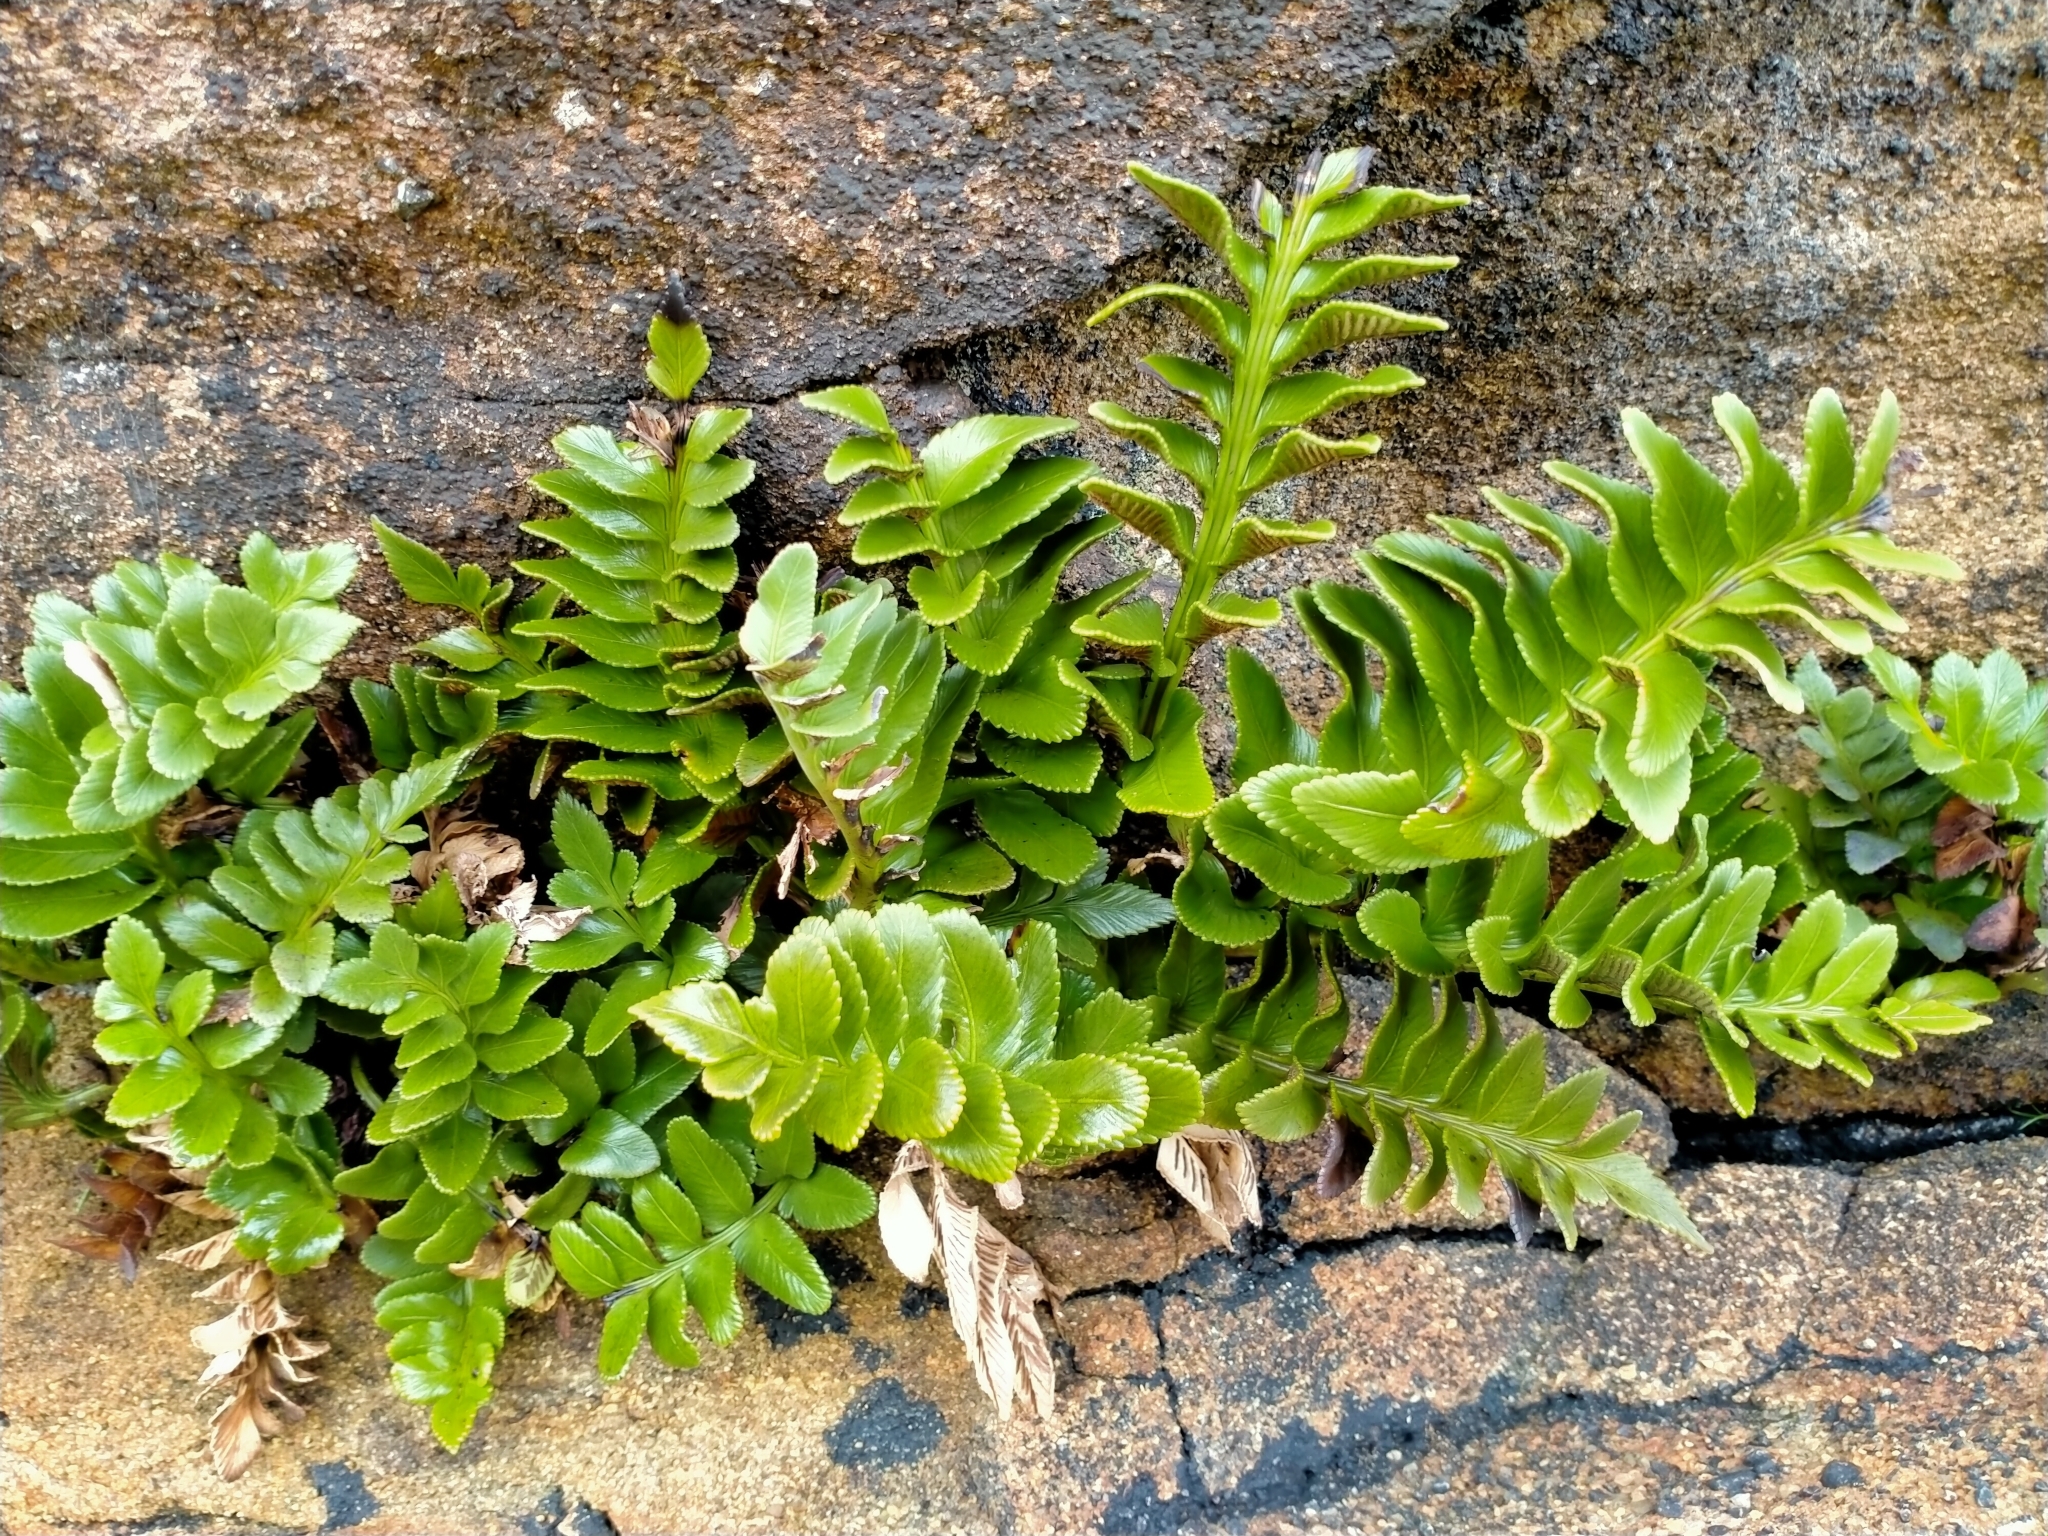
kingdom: Plantae
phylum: Tracheophyta
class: Polypodiopsida
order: Polypodiales
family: Aspleniaceae
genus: Asplenium
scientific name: Asplenium obtusatum
